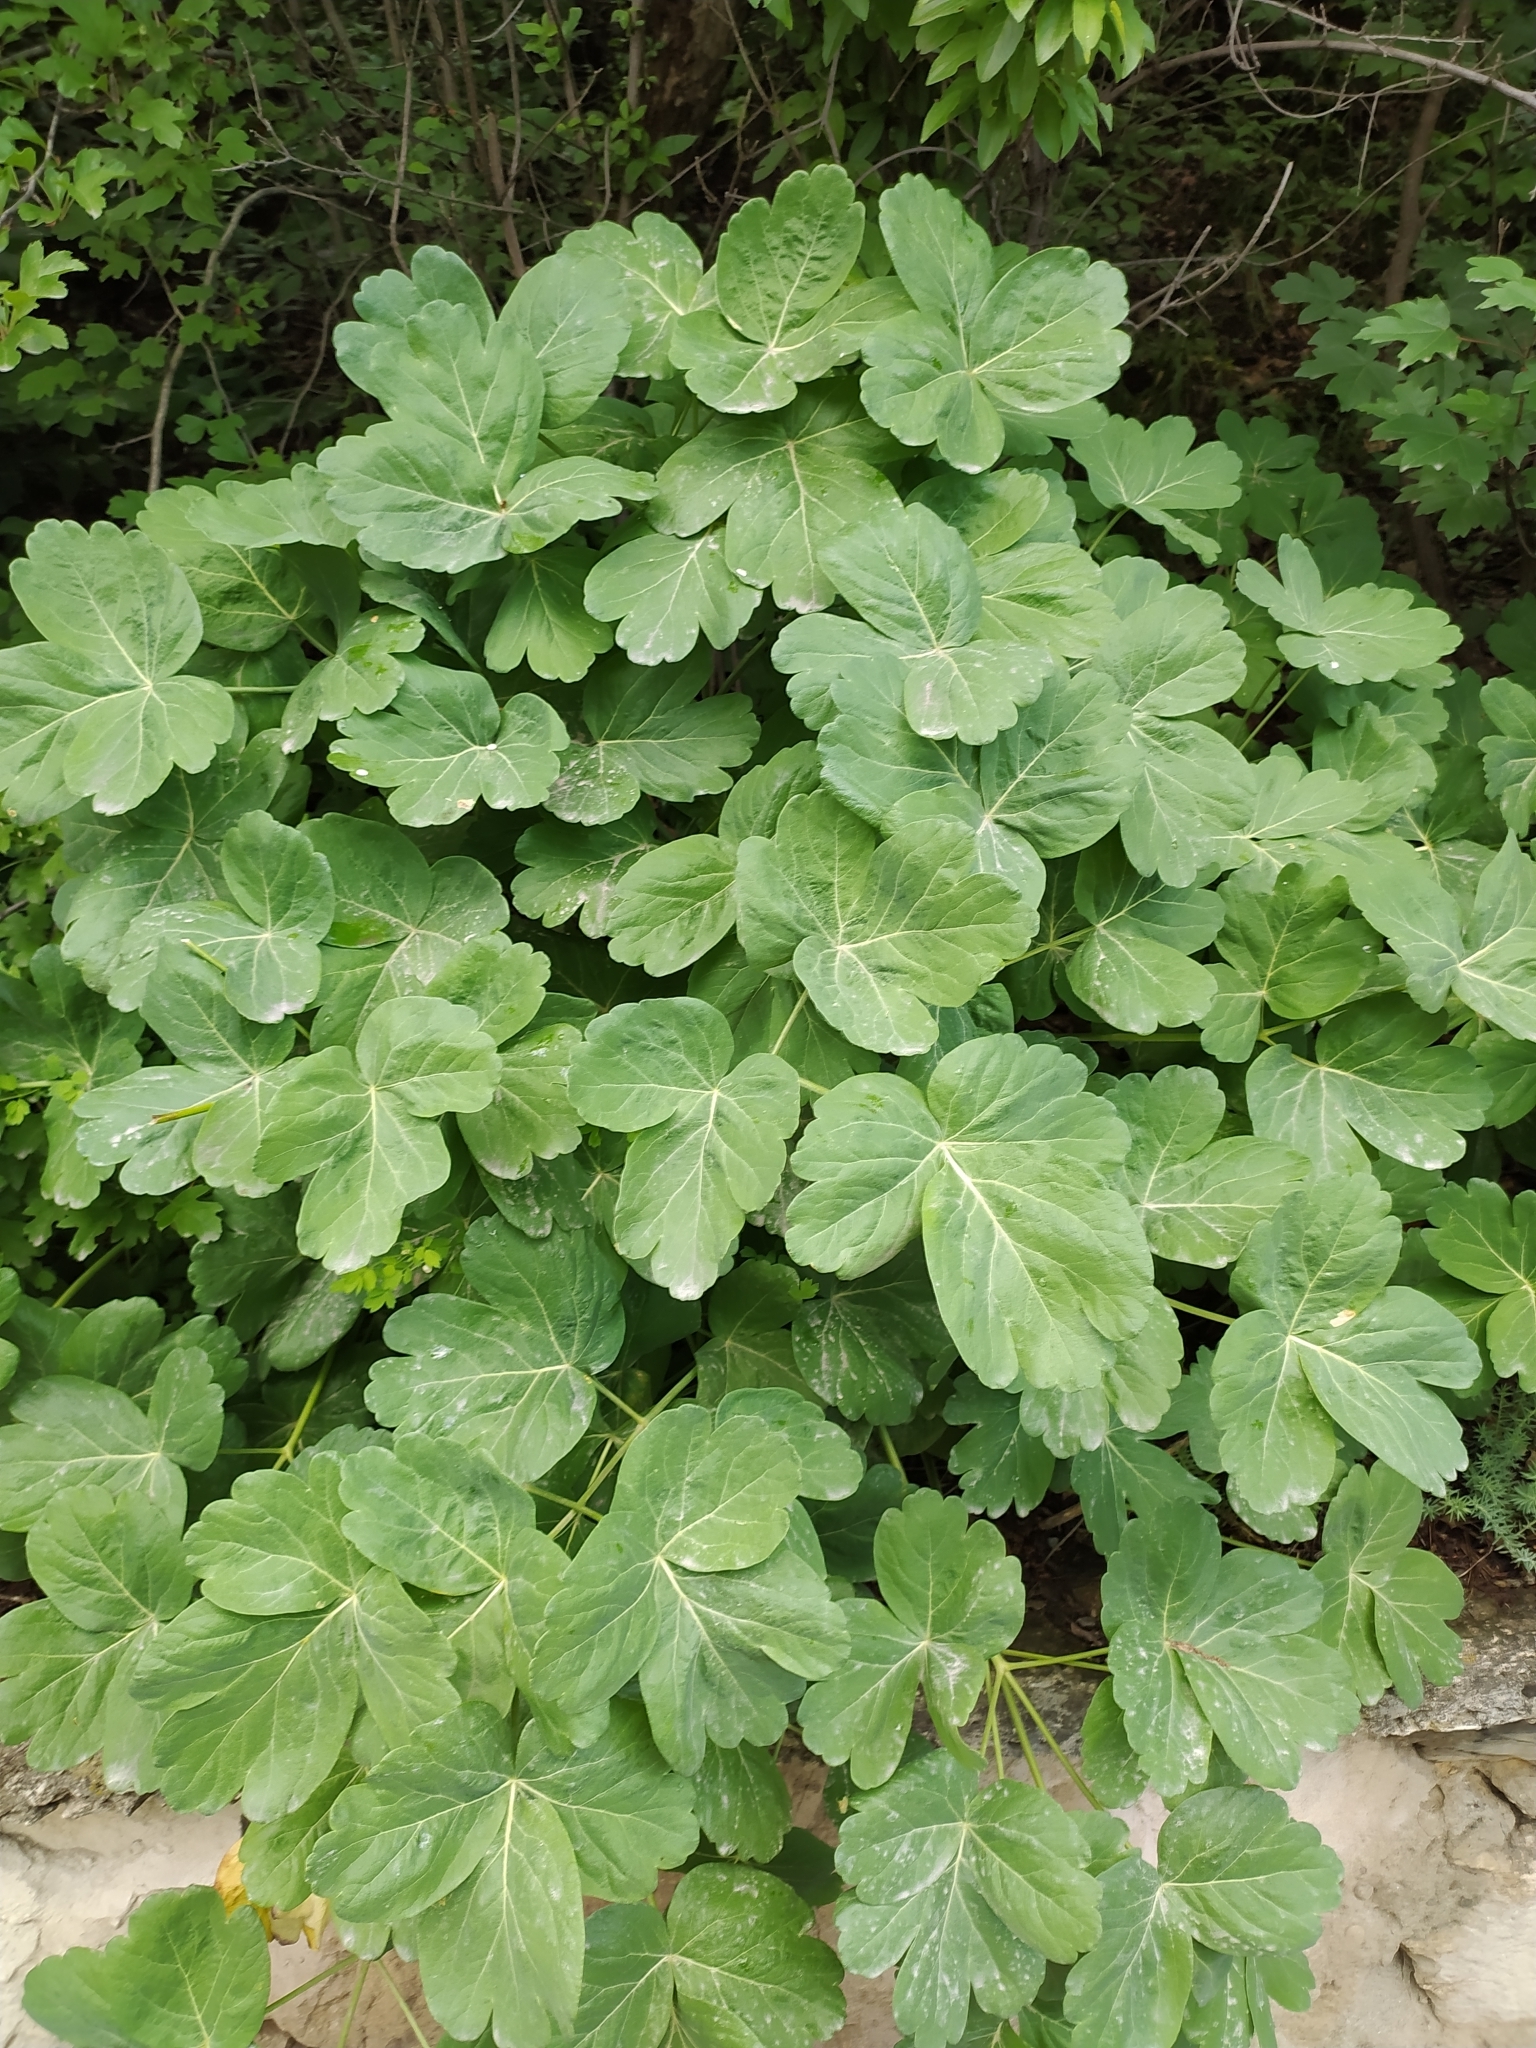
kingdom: Plantae
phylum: Tracheophyta
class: Magnoliopsida
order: Apiales
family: Apiaceae
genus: Laser
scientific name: Laser trilobum
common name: Laser
